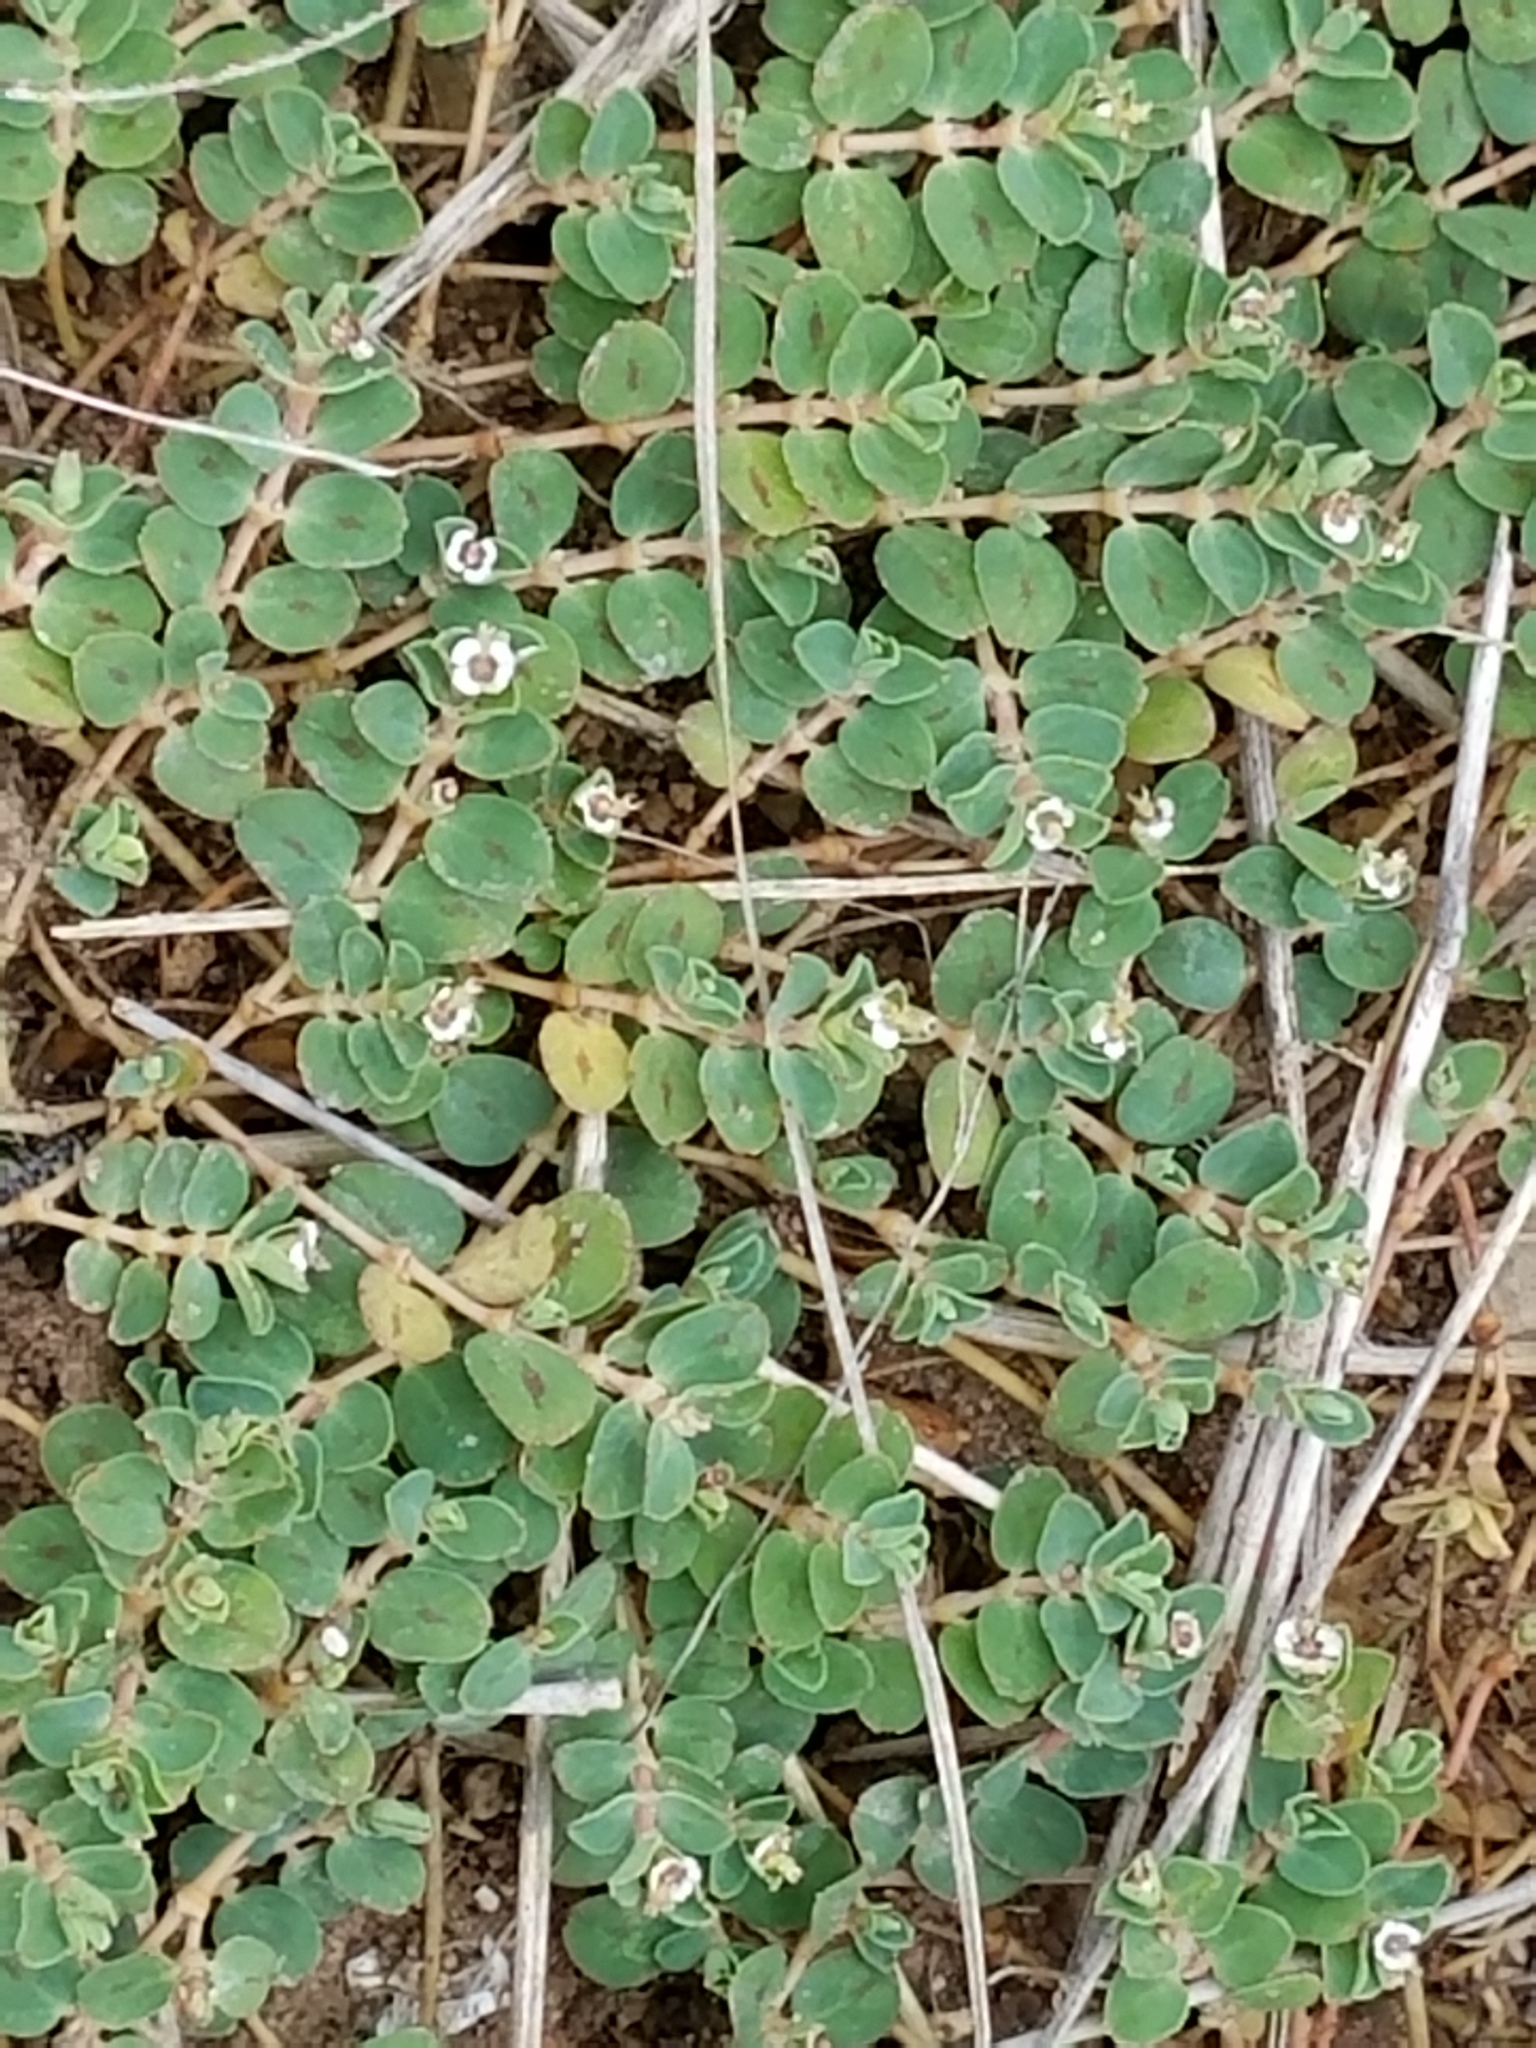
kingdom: Plantae
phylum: Tracheophyta
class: Magnoliopsida
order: Malpighiales
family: Euphorbiaceae
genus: Euphorbia
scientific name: Euphorbia albomarginata
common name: Whitemargin sandmat
